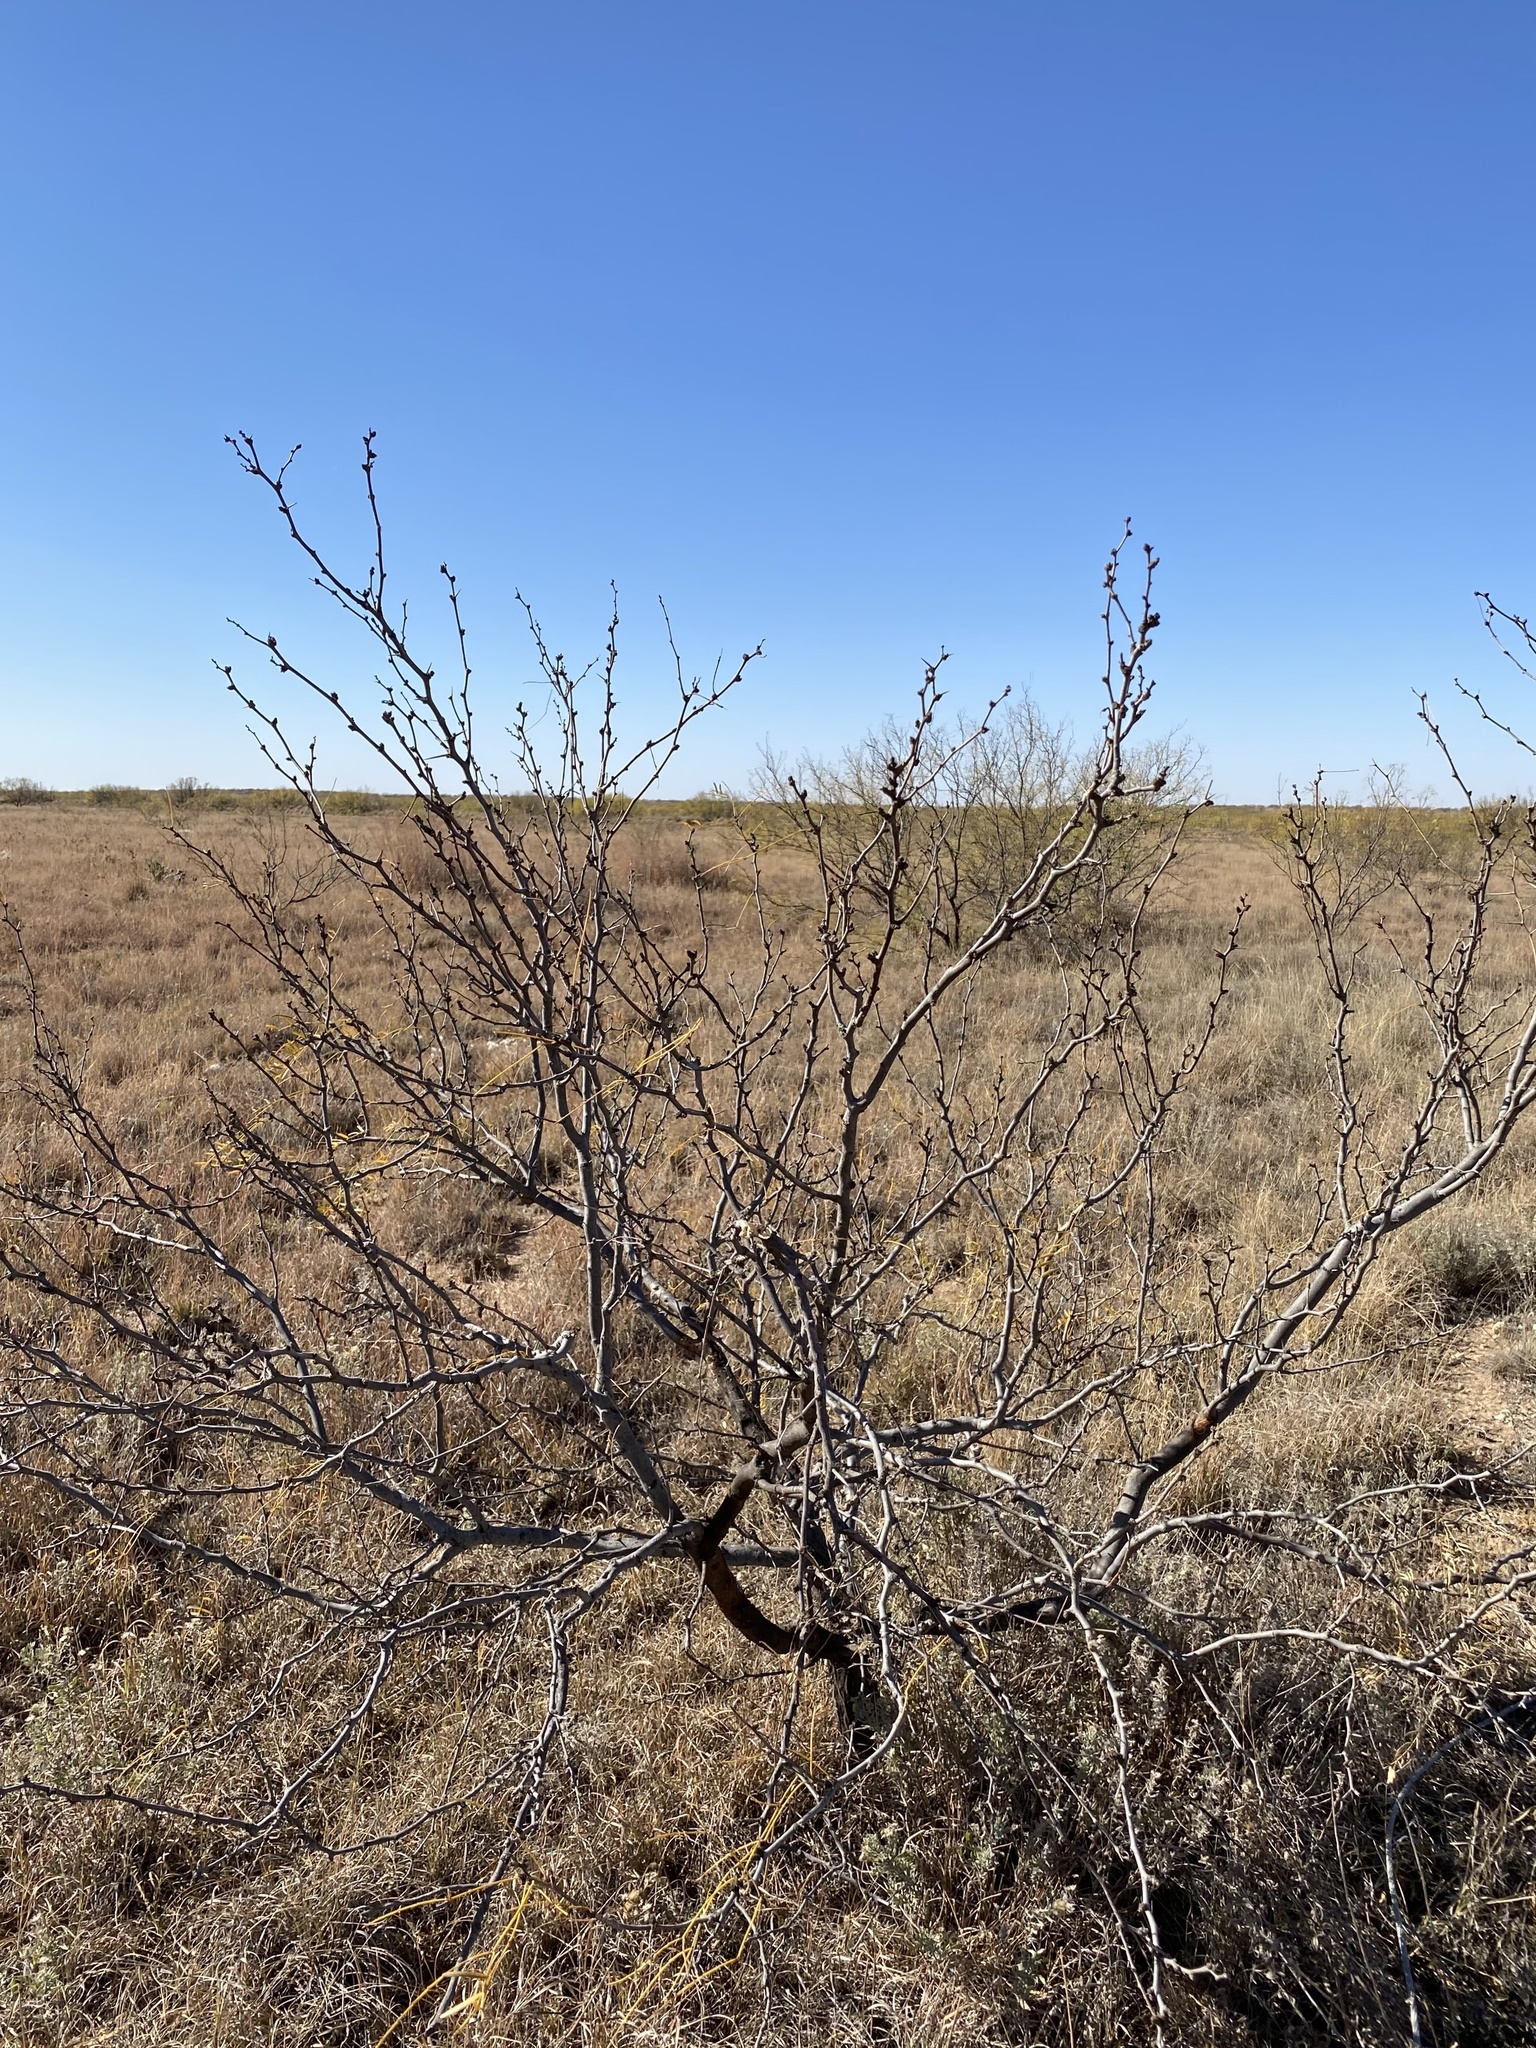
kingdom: Plantae
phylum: Tracheophyta
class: Magnoliopsida
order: Fabales
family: Fabaceae
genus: Prosopis
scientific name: Prosopis glandulosa
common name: Honey mesquite
